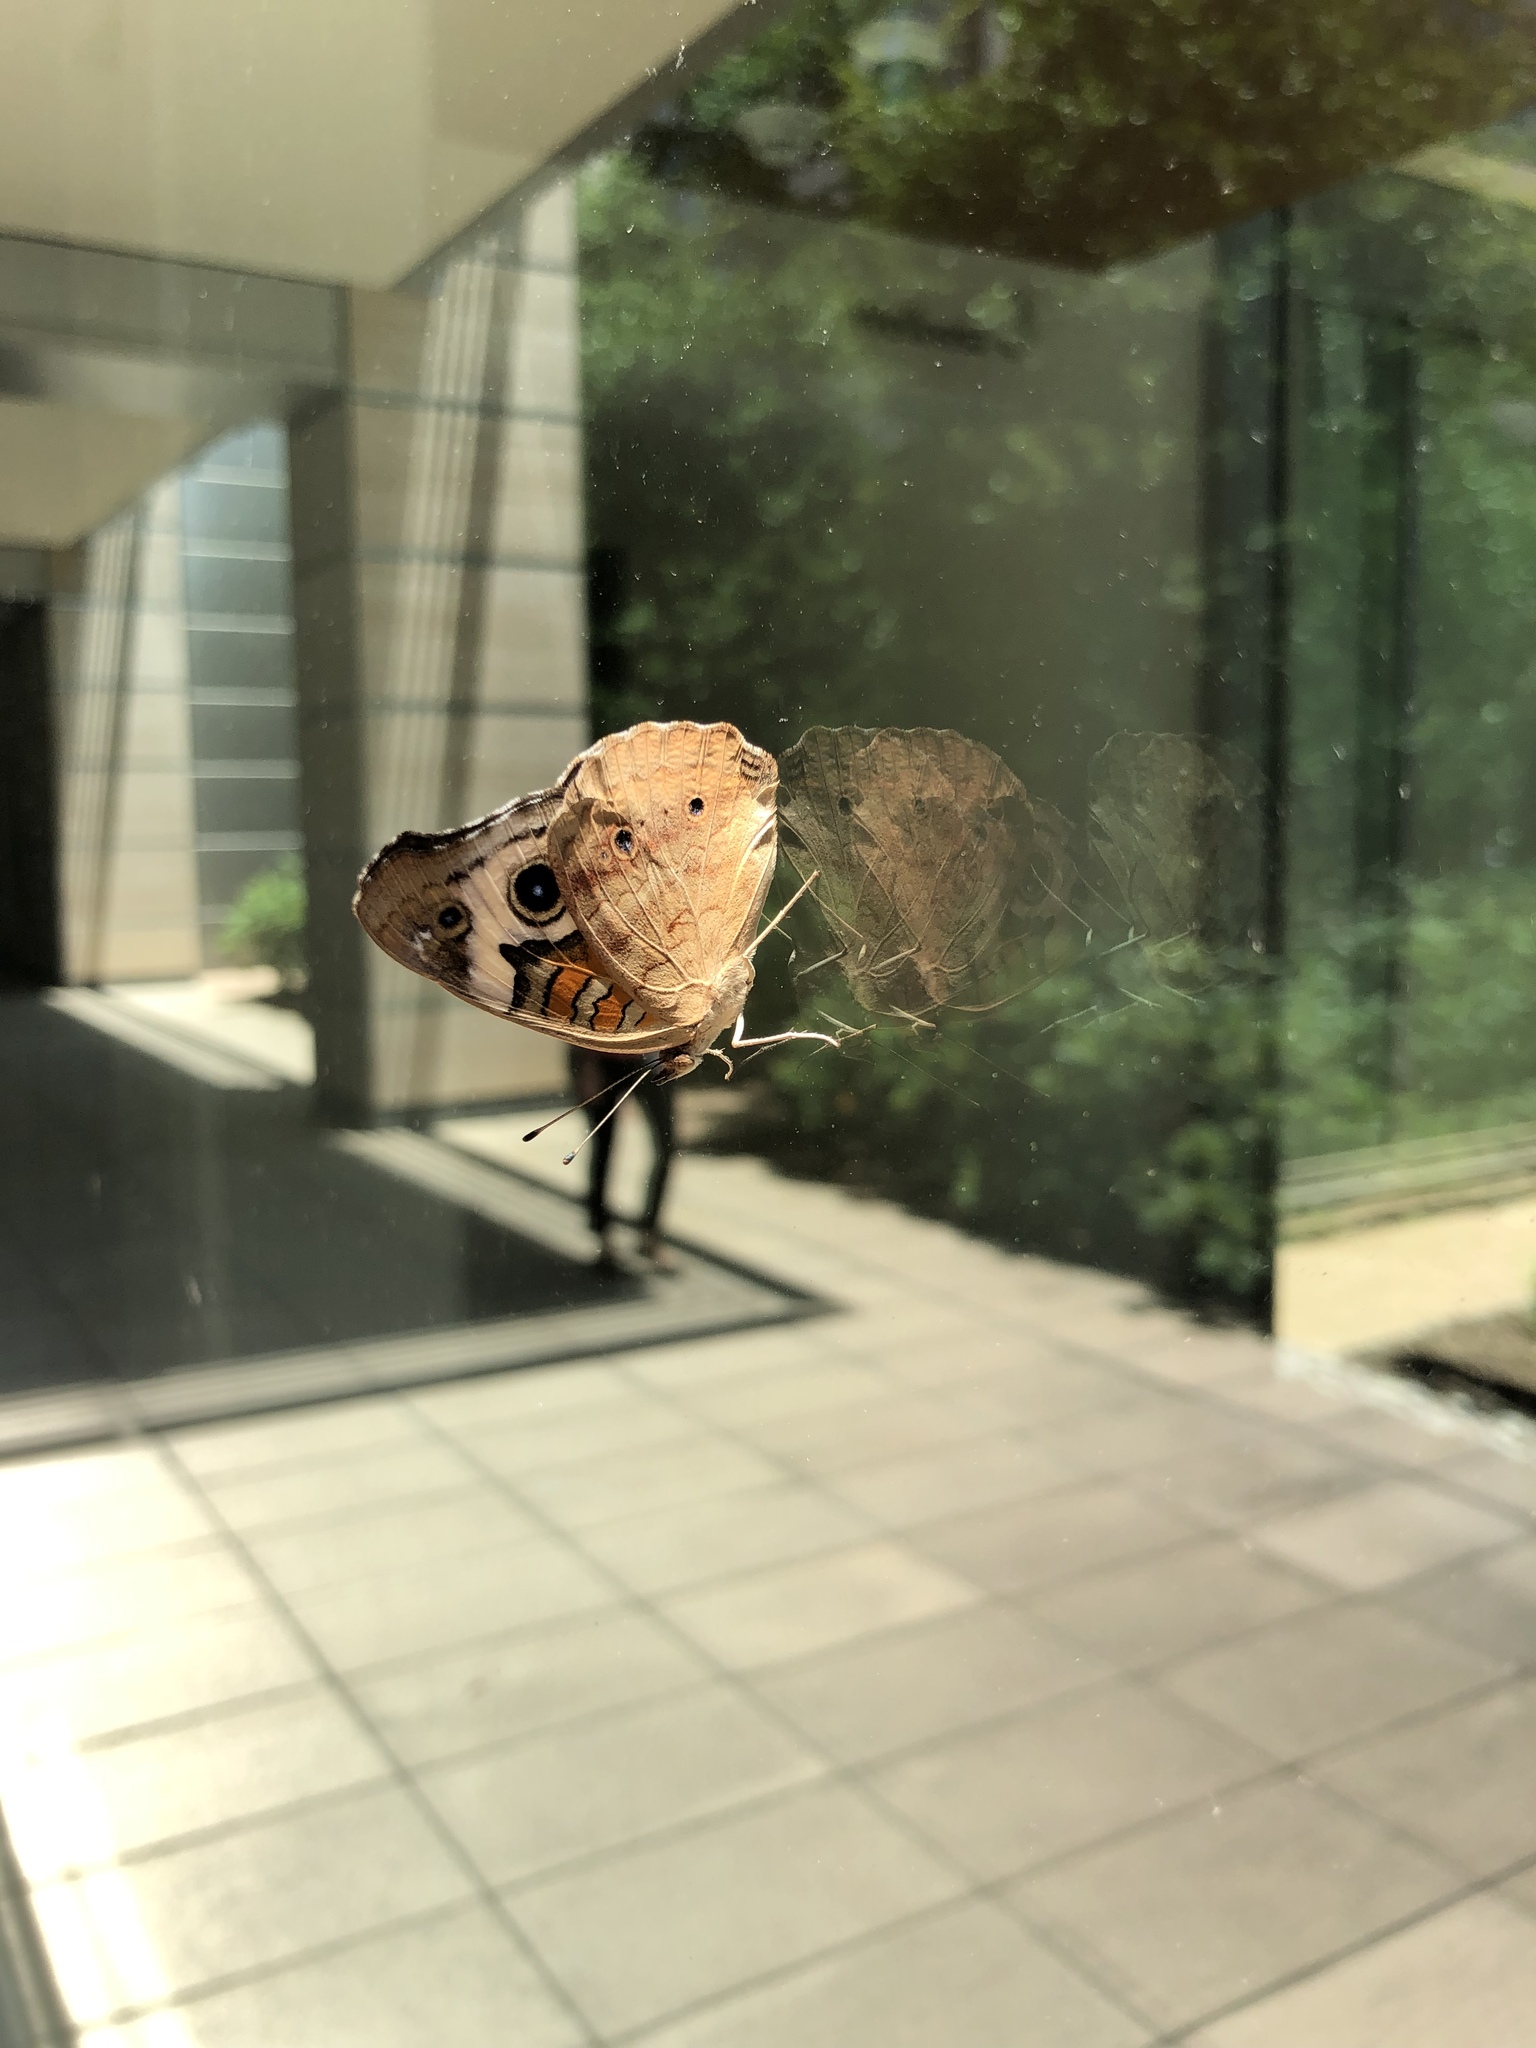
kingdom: Animalia
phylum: Arthropoda
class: Insecta
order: Lepidoptera
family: Nymphalidae
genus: Junonia
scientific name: Junonia coenia
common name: Common buckeye
